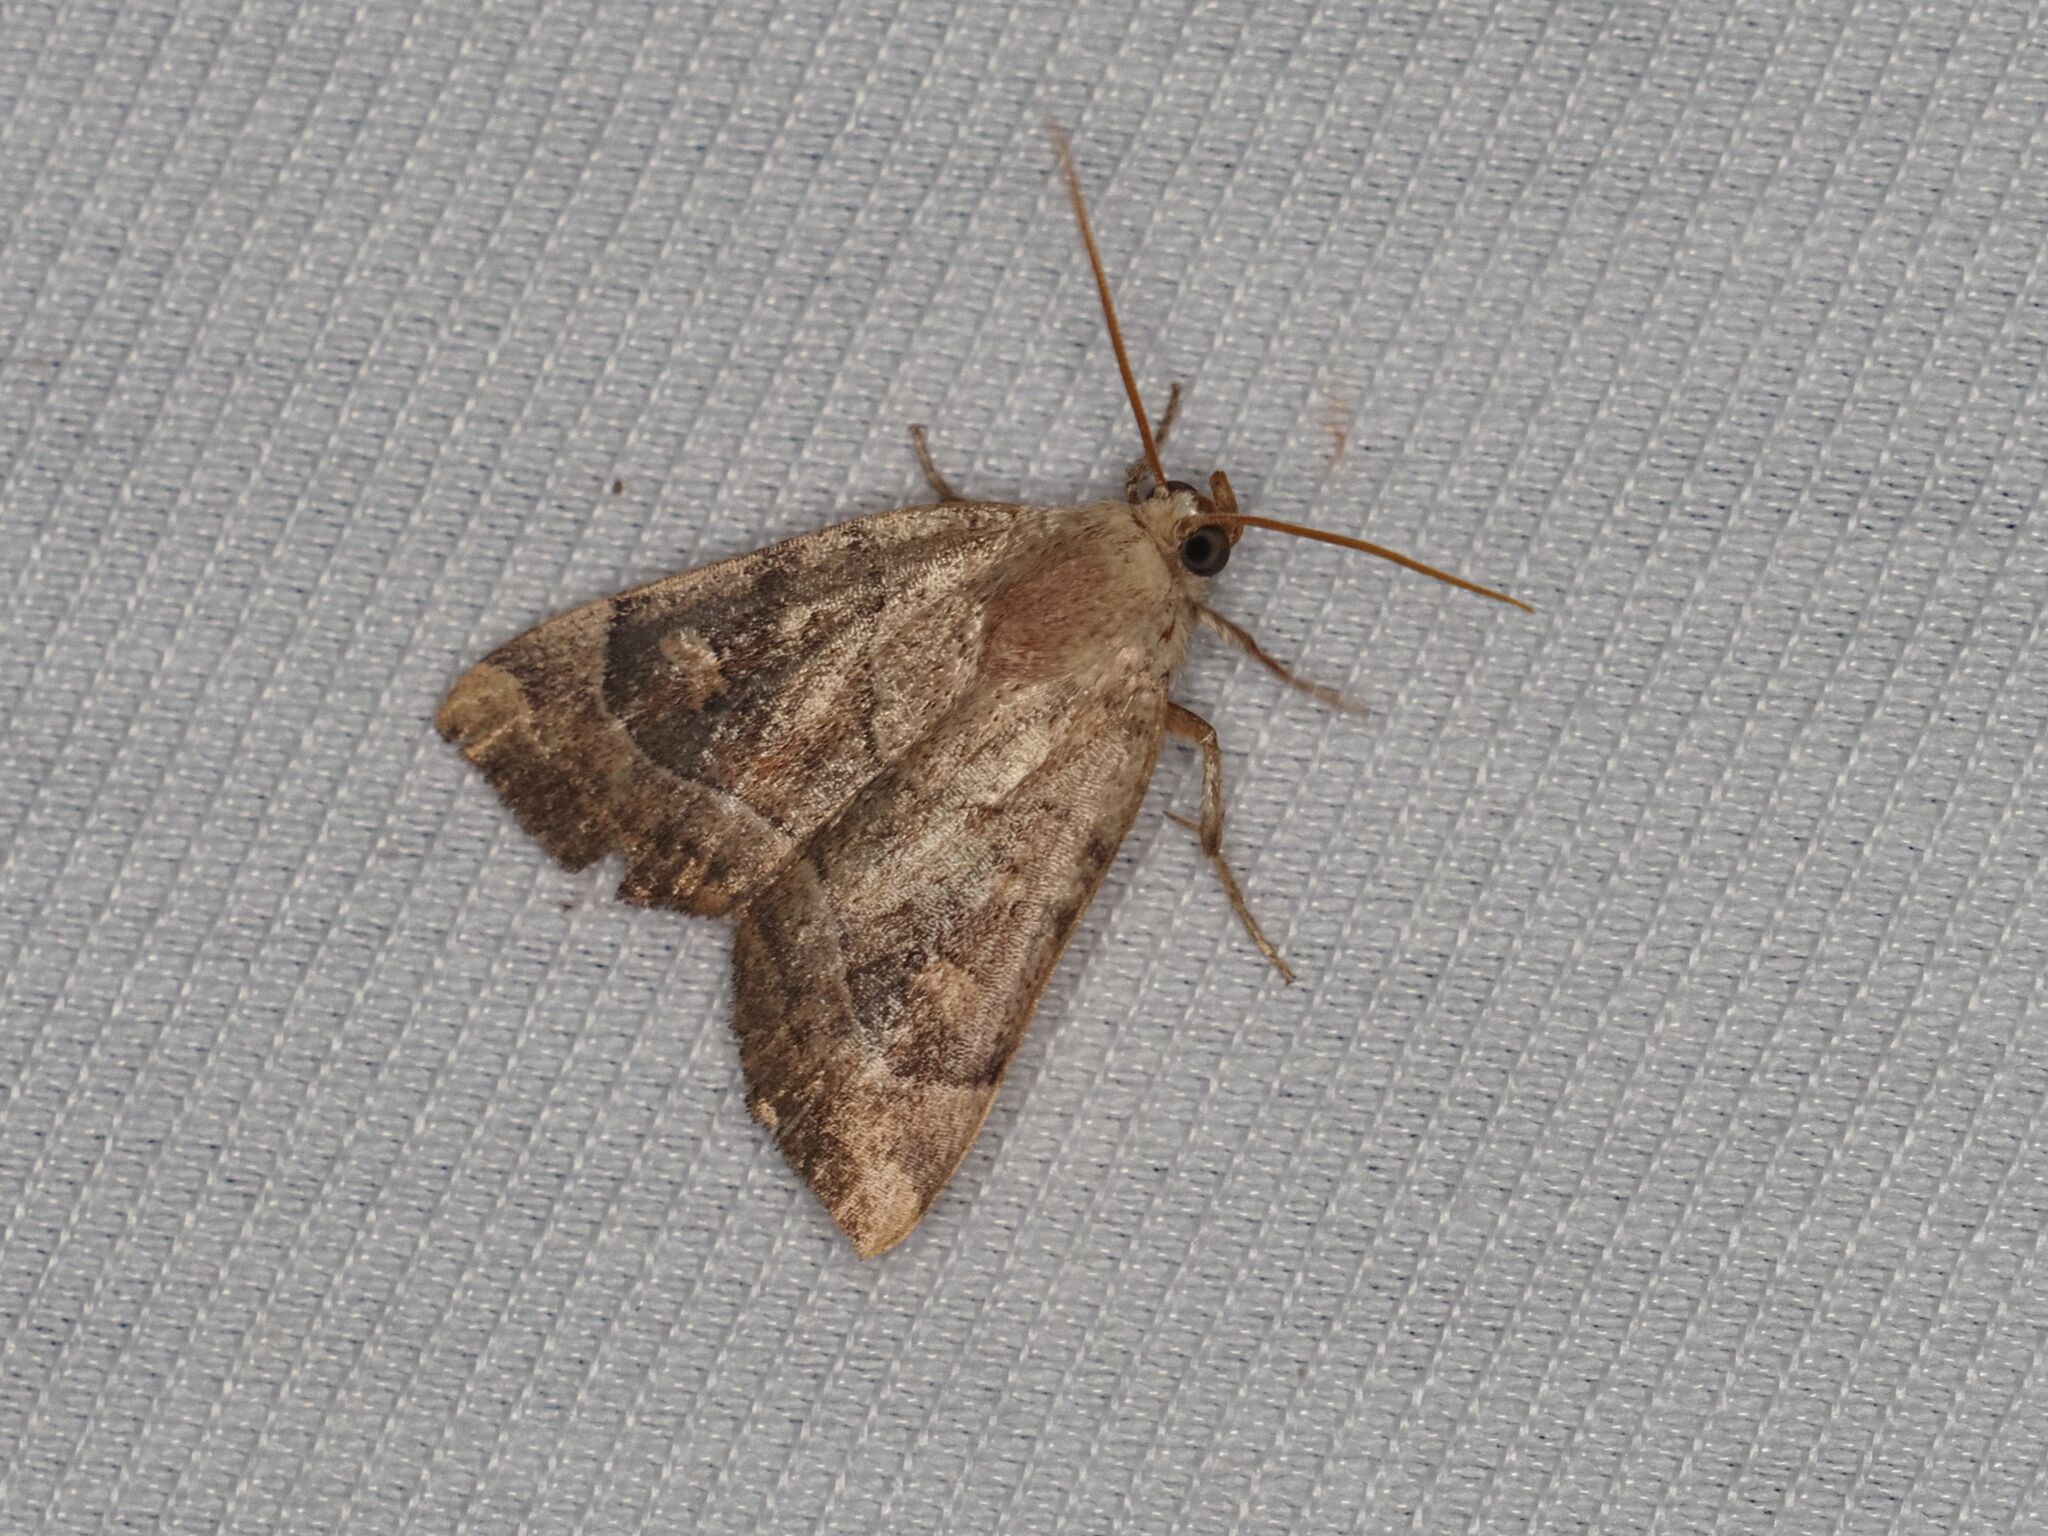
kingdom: Animalia
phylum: Arthropoda
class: Insecta
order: Lepidoptera
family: Noctuidae
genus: Cosmia
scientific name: Cosmia trapezina
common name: Dun-bar
